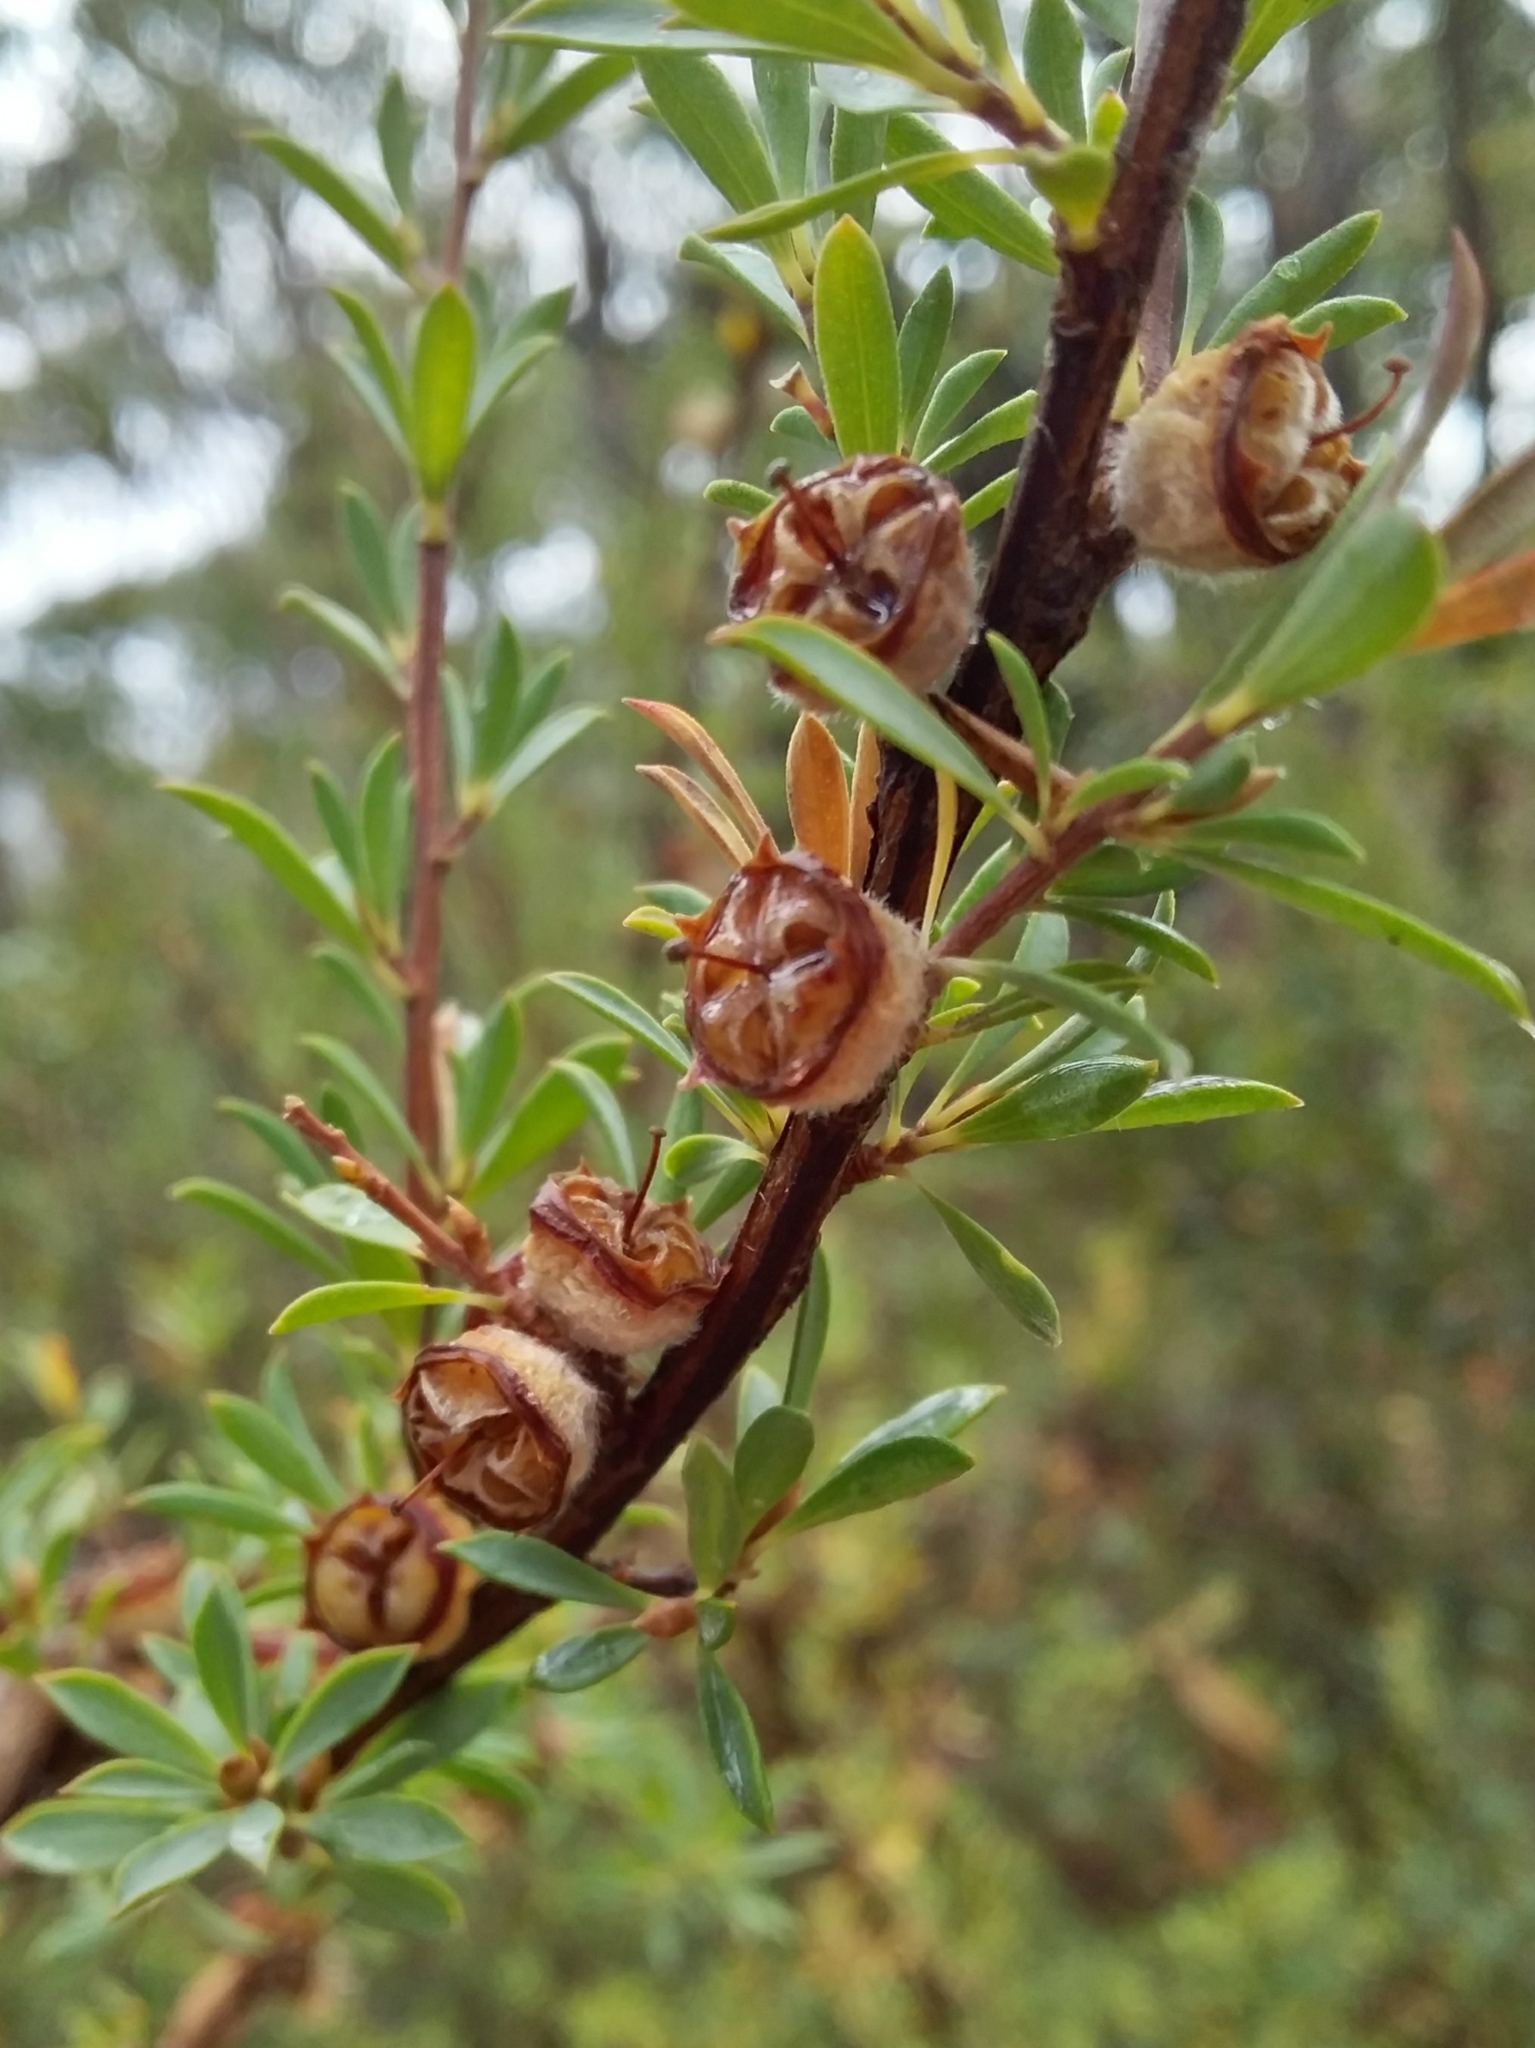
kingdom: Plantae
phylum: Tracheophyta
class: Magnoliopsida
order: Myrtales
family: Myrtaceae
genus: Leptospermum
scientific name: Leptospermum myrsinoides
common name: Heath teatree
